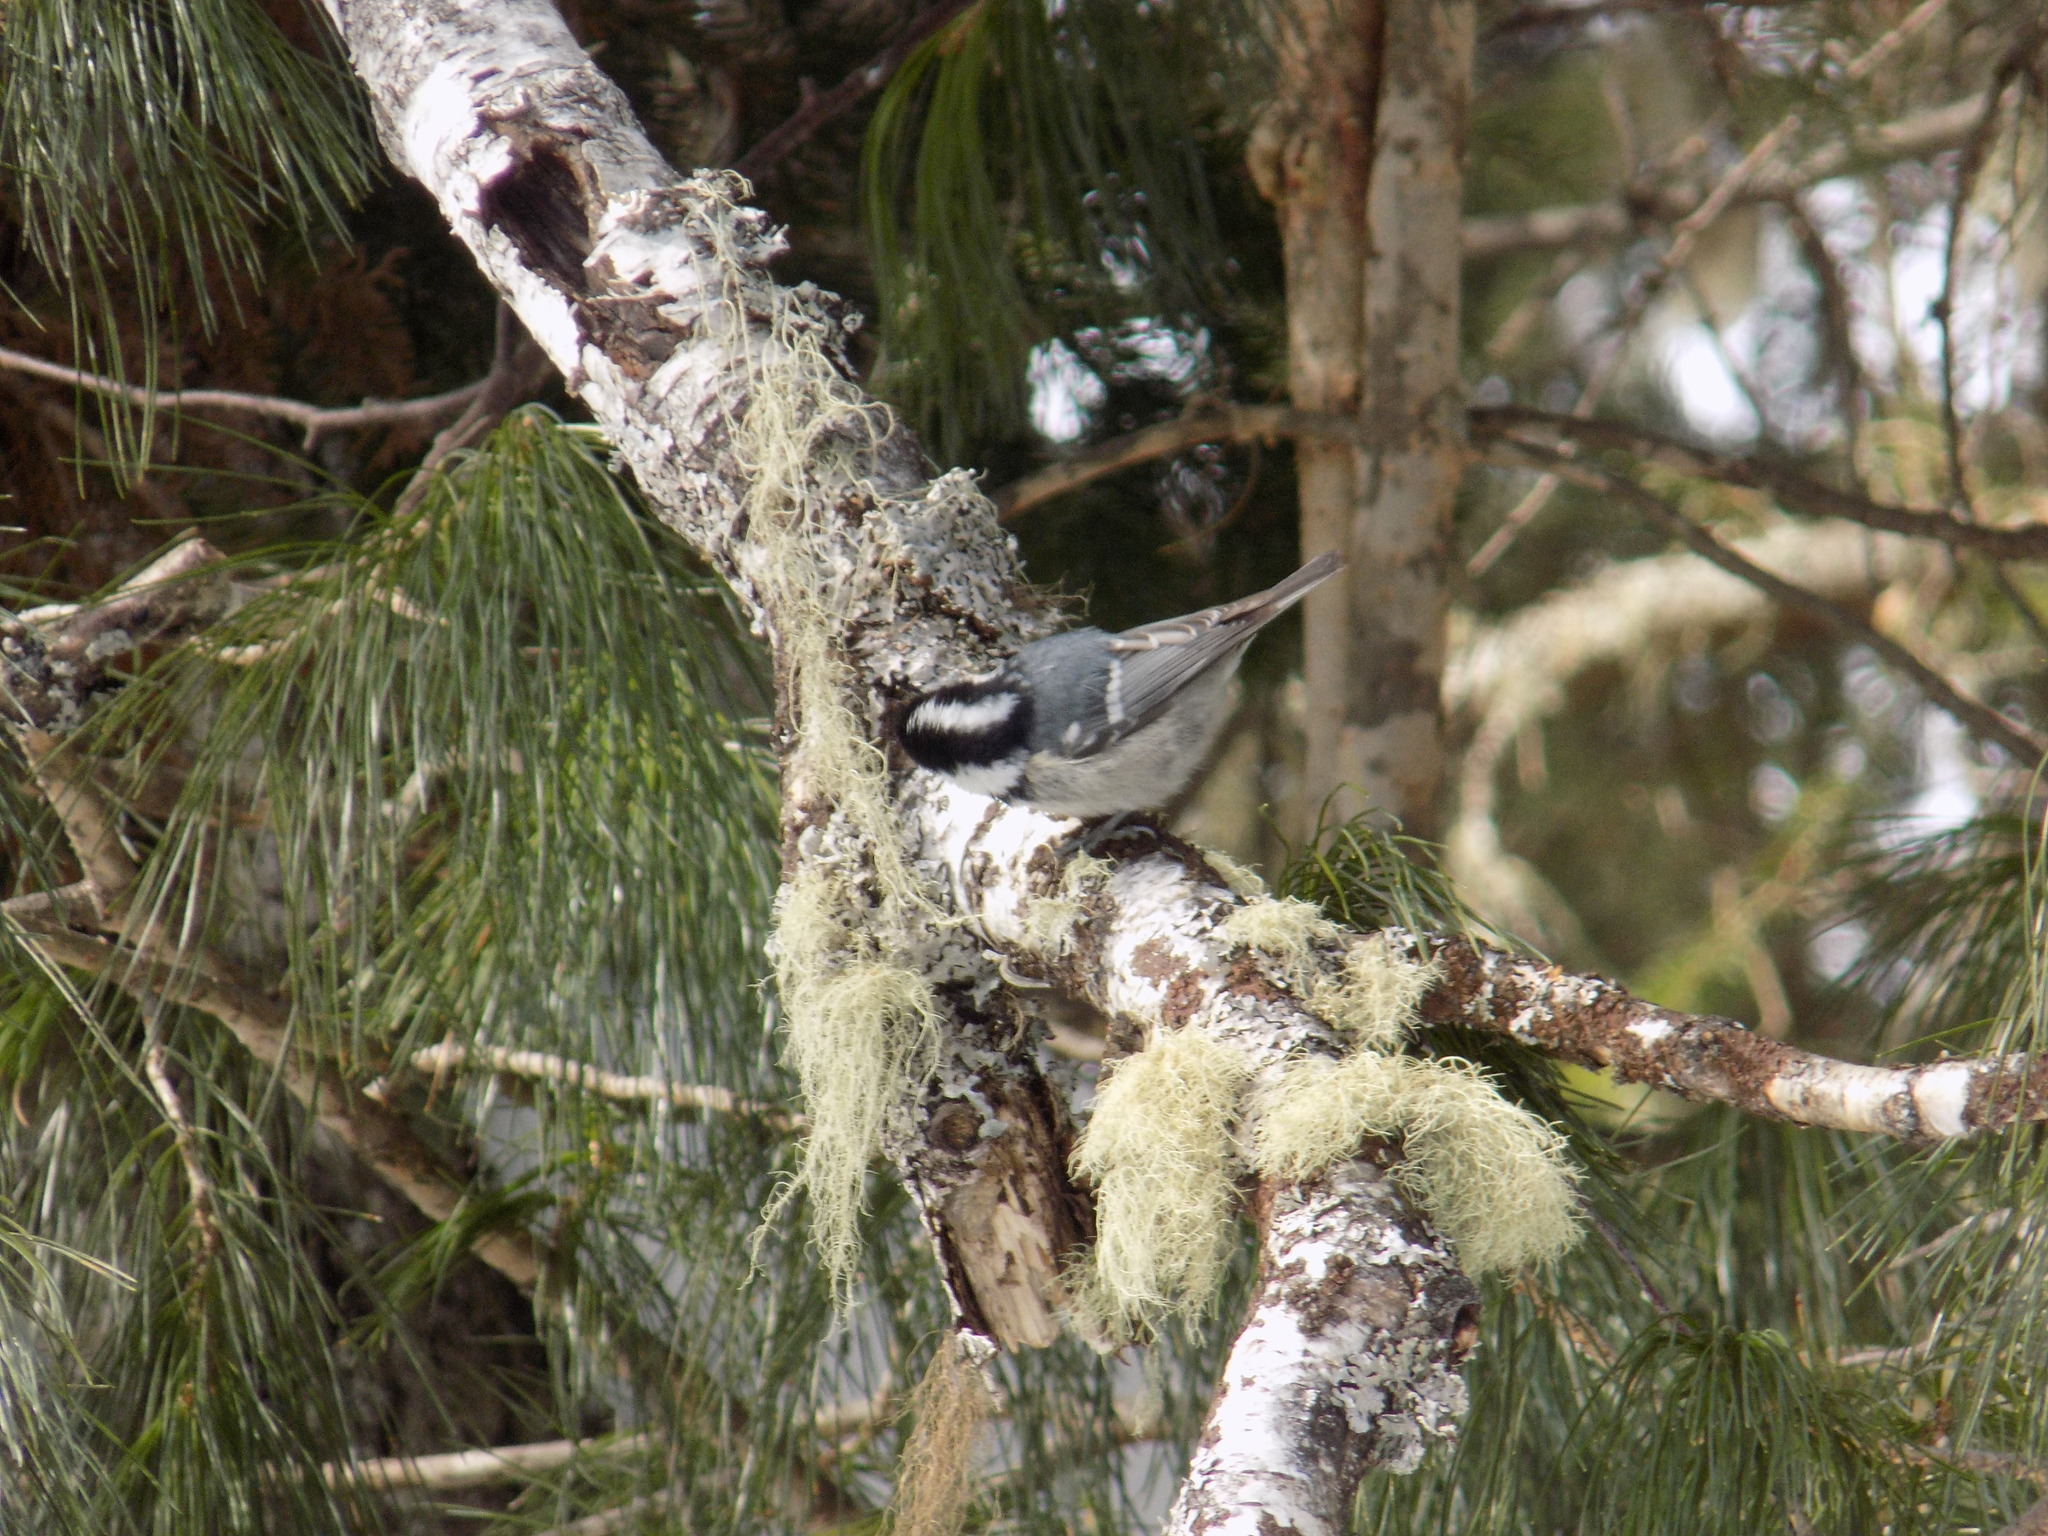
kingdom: Animalia
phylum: Chordata
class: Aves
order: Passeriformes
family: Paridae
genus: Periparus
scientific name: Periparus ater
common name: Coal tit
